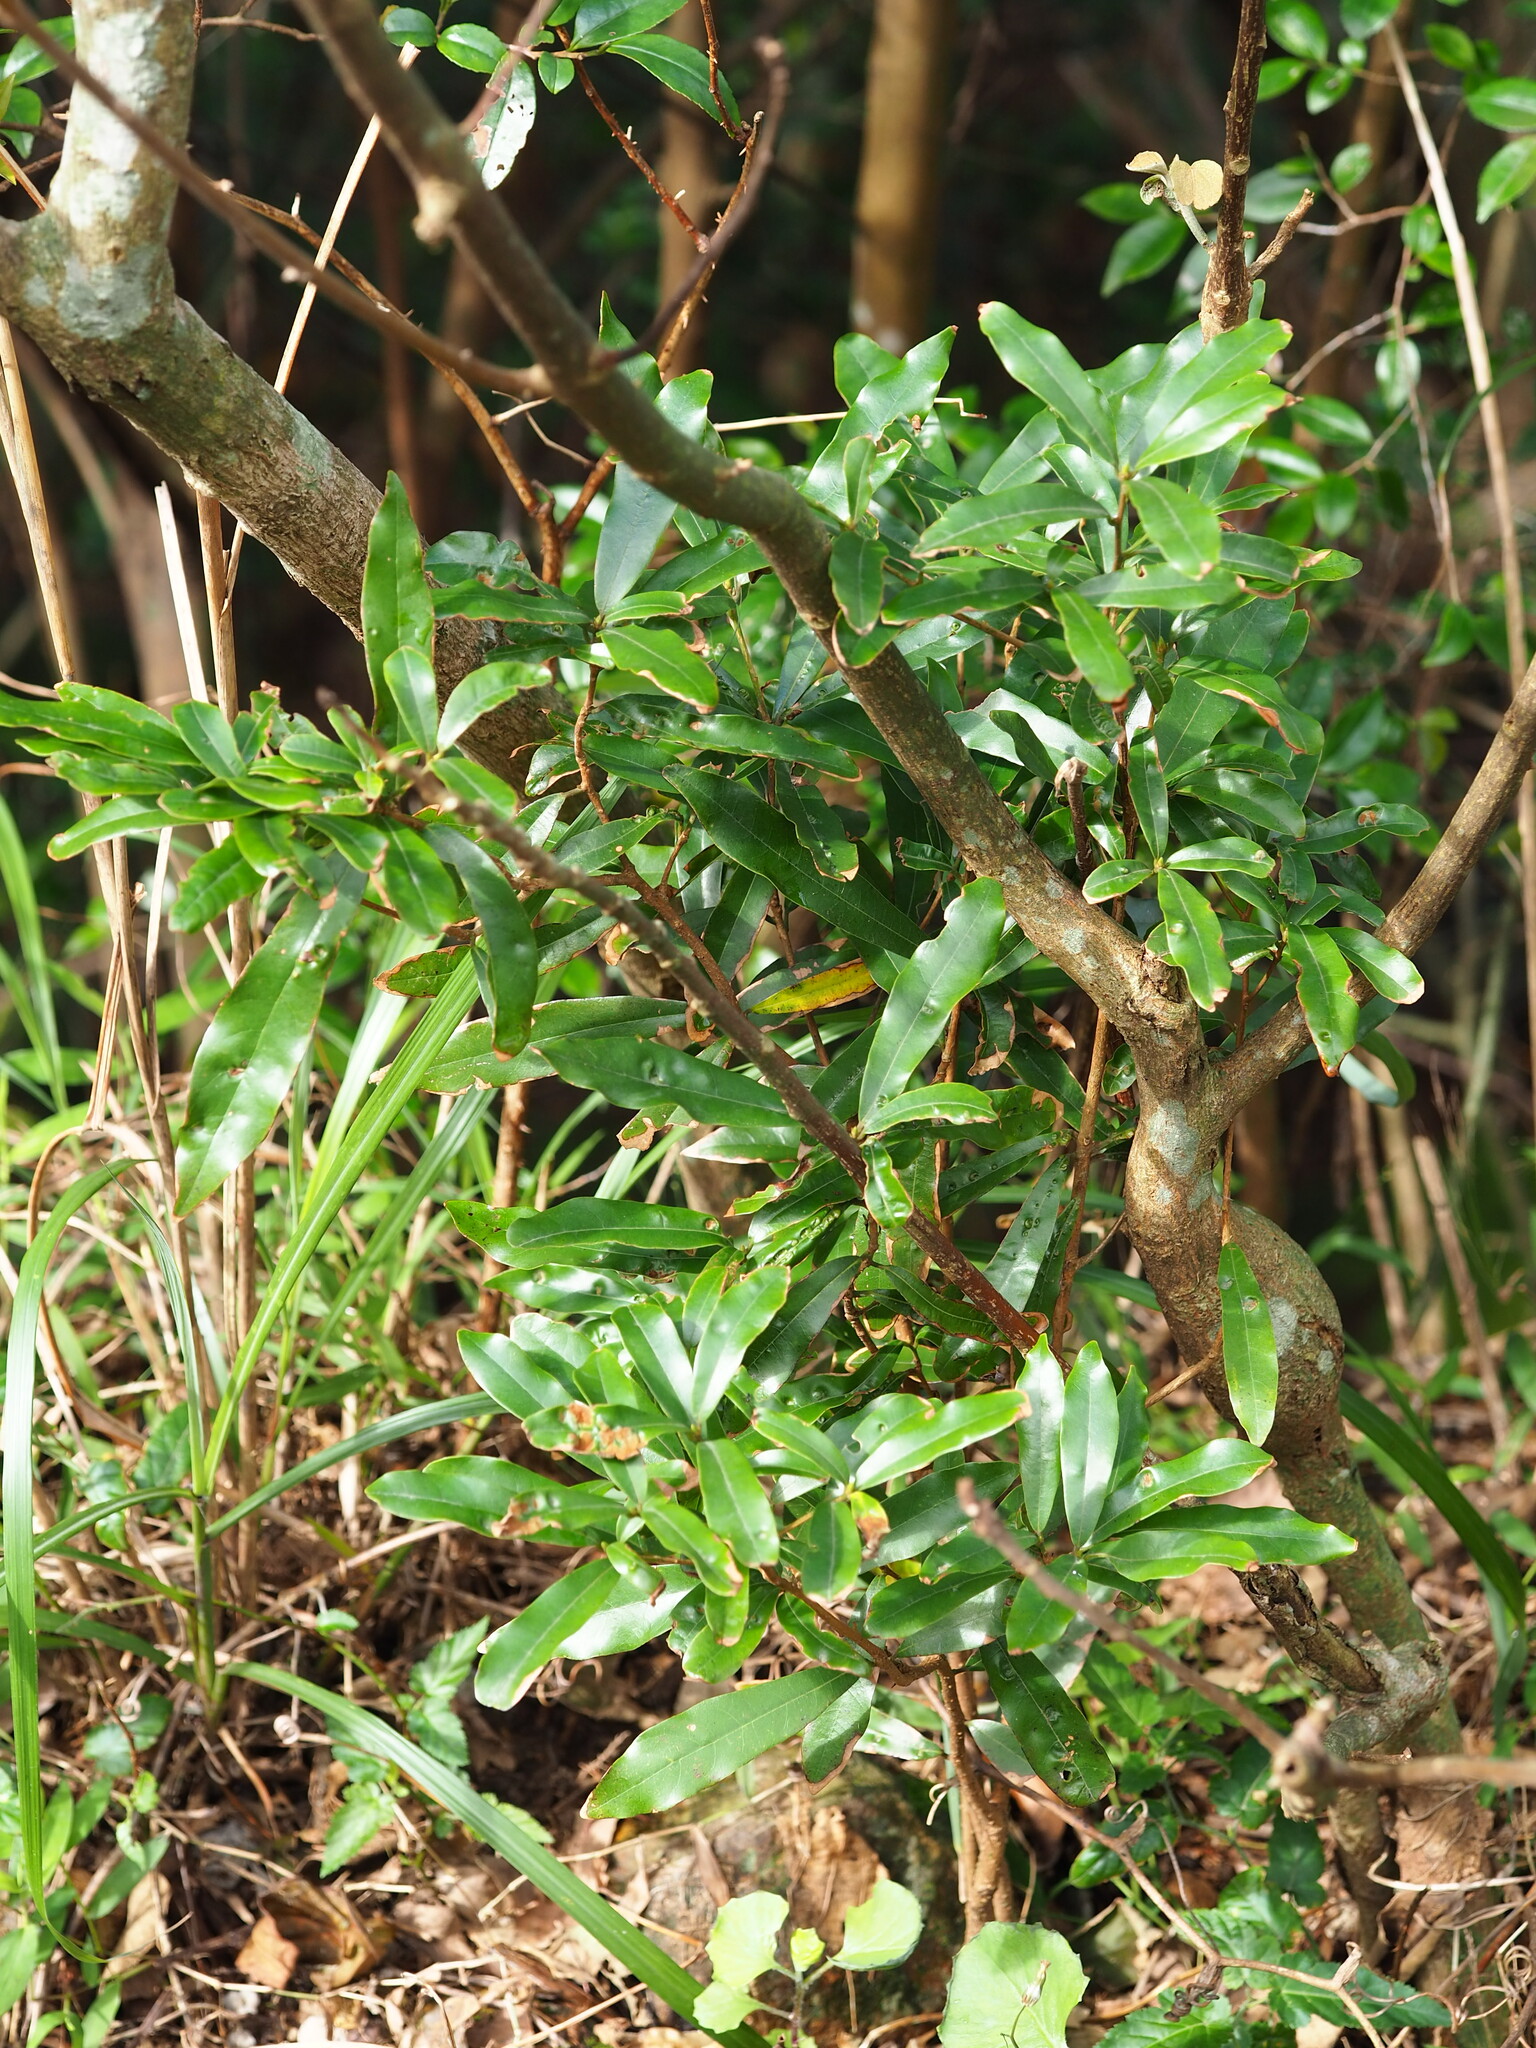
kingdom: Plantae
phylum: Tracheophyta
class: Magnoliopsida
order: Laurales
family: Lauraceae
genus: Litsea
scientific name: Litsea hypophaea
